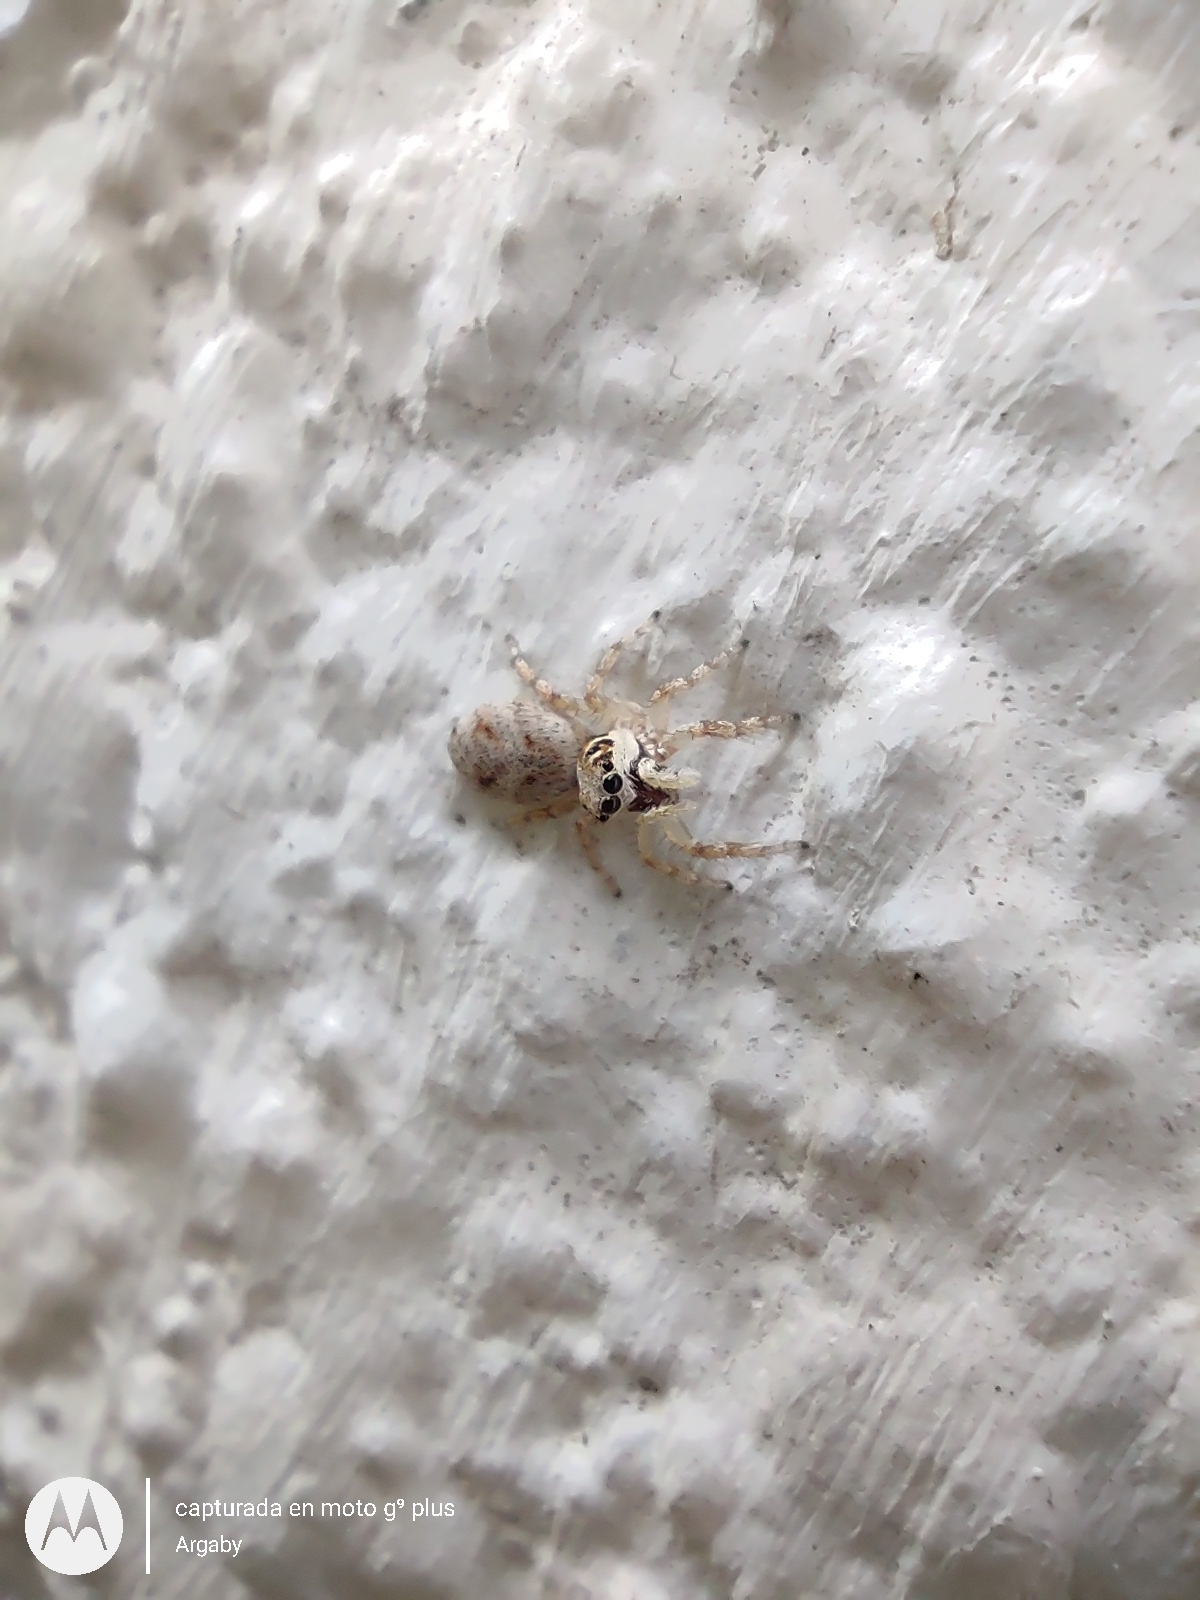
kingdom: Animalia
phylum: Arthropoda
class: Arachnida
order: Araneae
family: Salticidae
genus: Salticus
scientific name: Salticus mutabilis
